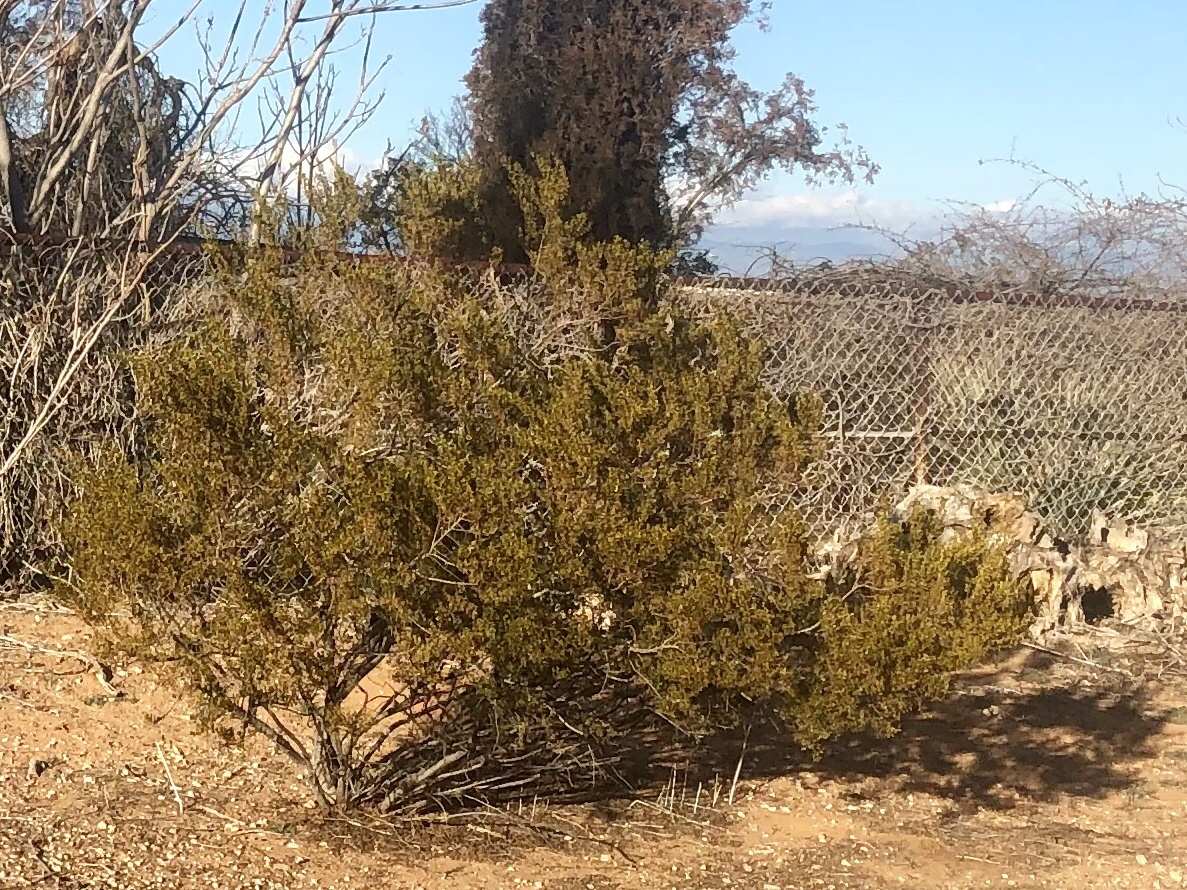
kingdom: Plantae
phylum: Tracheophyta
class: Magnoliopsida
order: Zygophyllales
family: Zygophyllaceae
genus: Larrea
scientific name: Larrea tridentata
